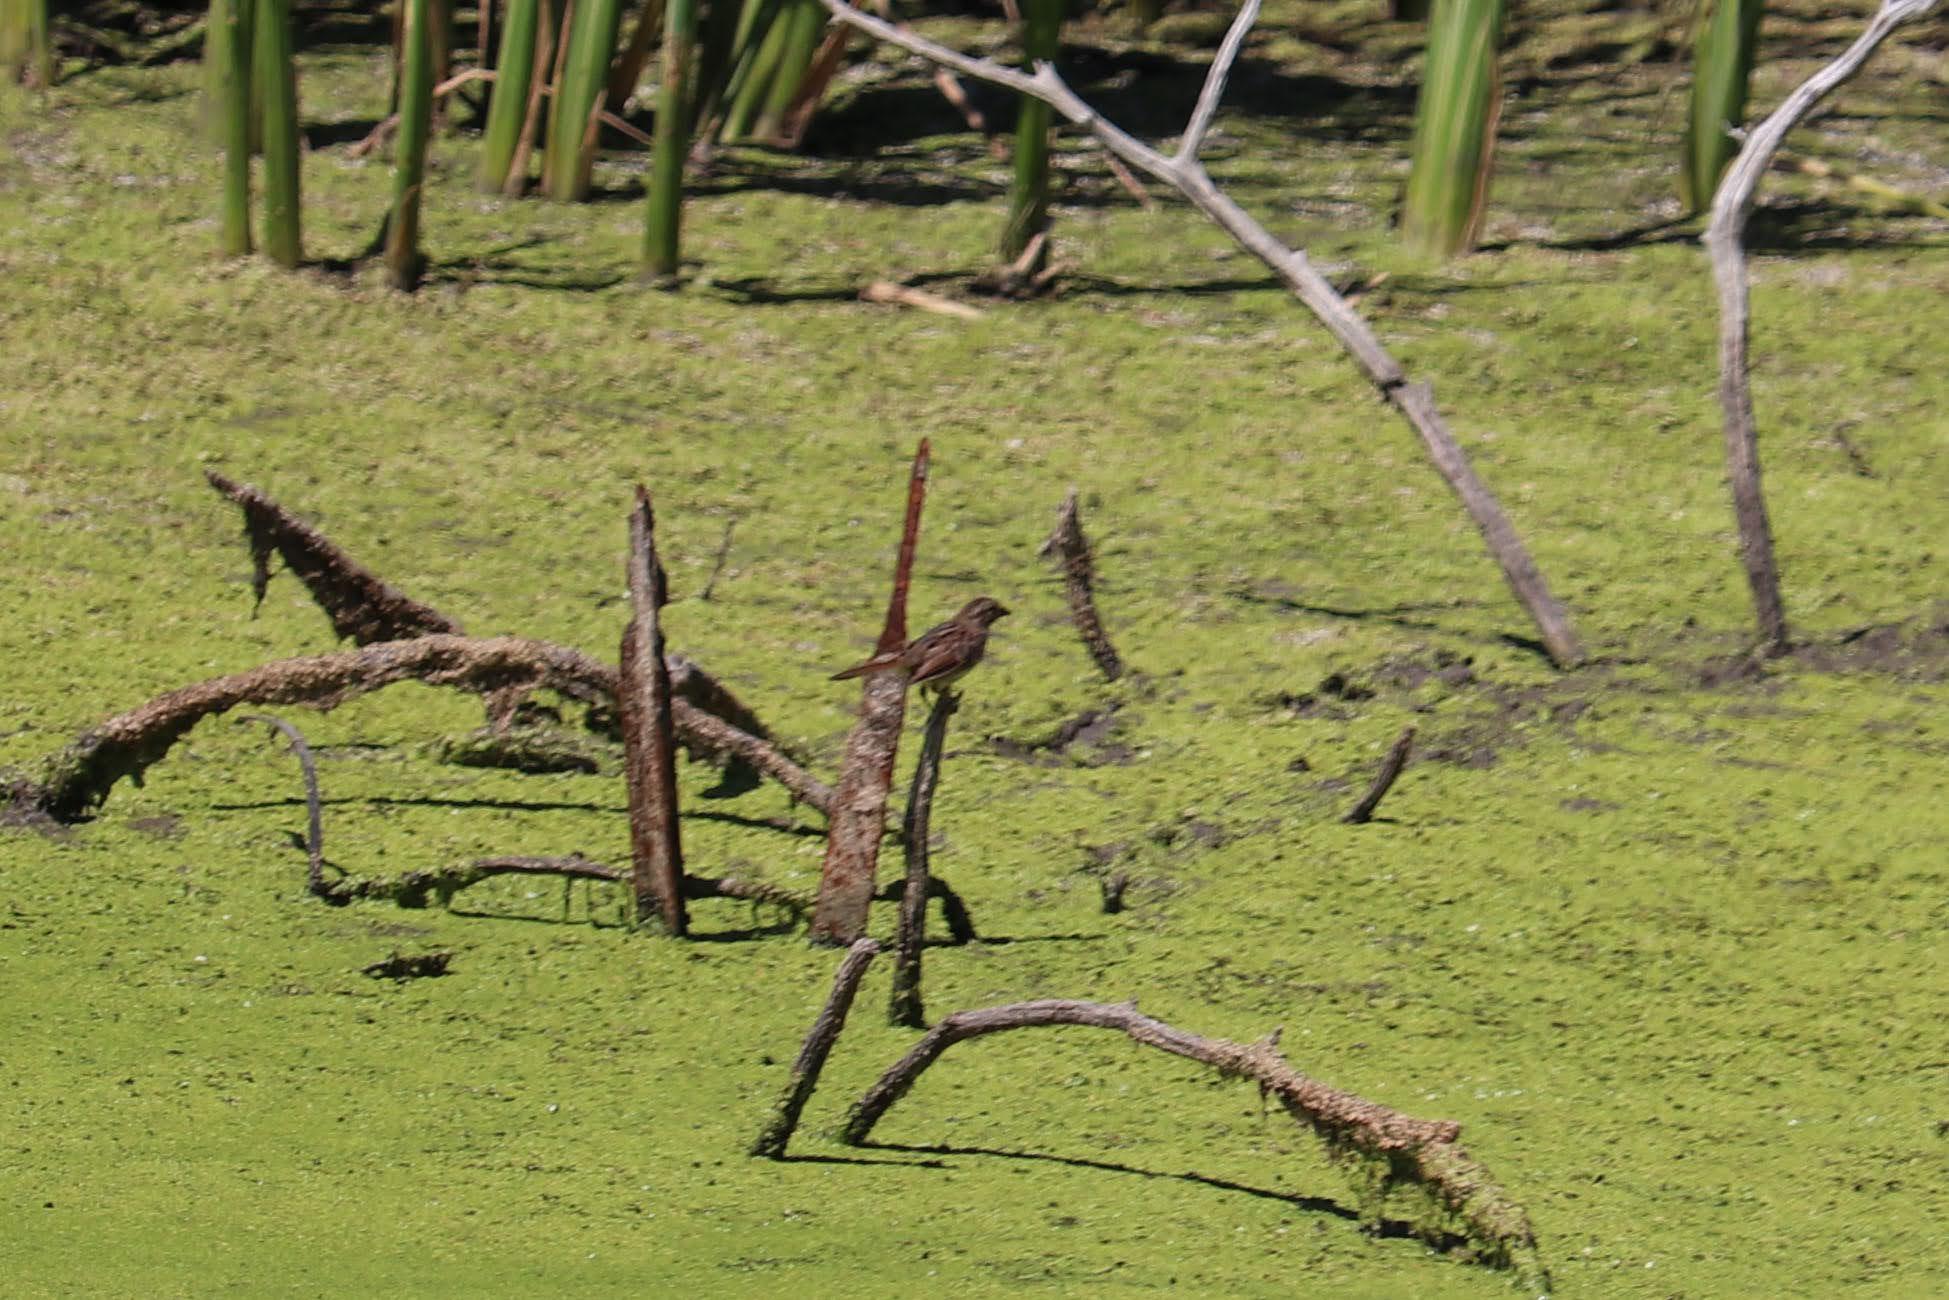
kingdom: Animalia
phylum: Chordata
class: Aves
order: Passeriformes
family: Passerellidae
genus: Melospiza
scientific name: Melospiza melodia
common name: Song sparrow
